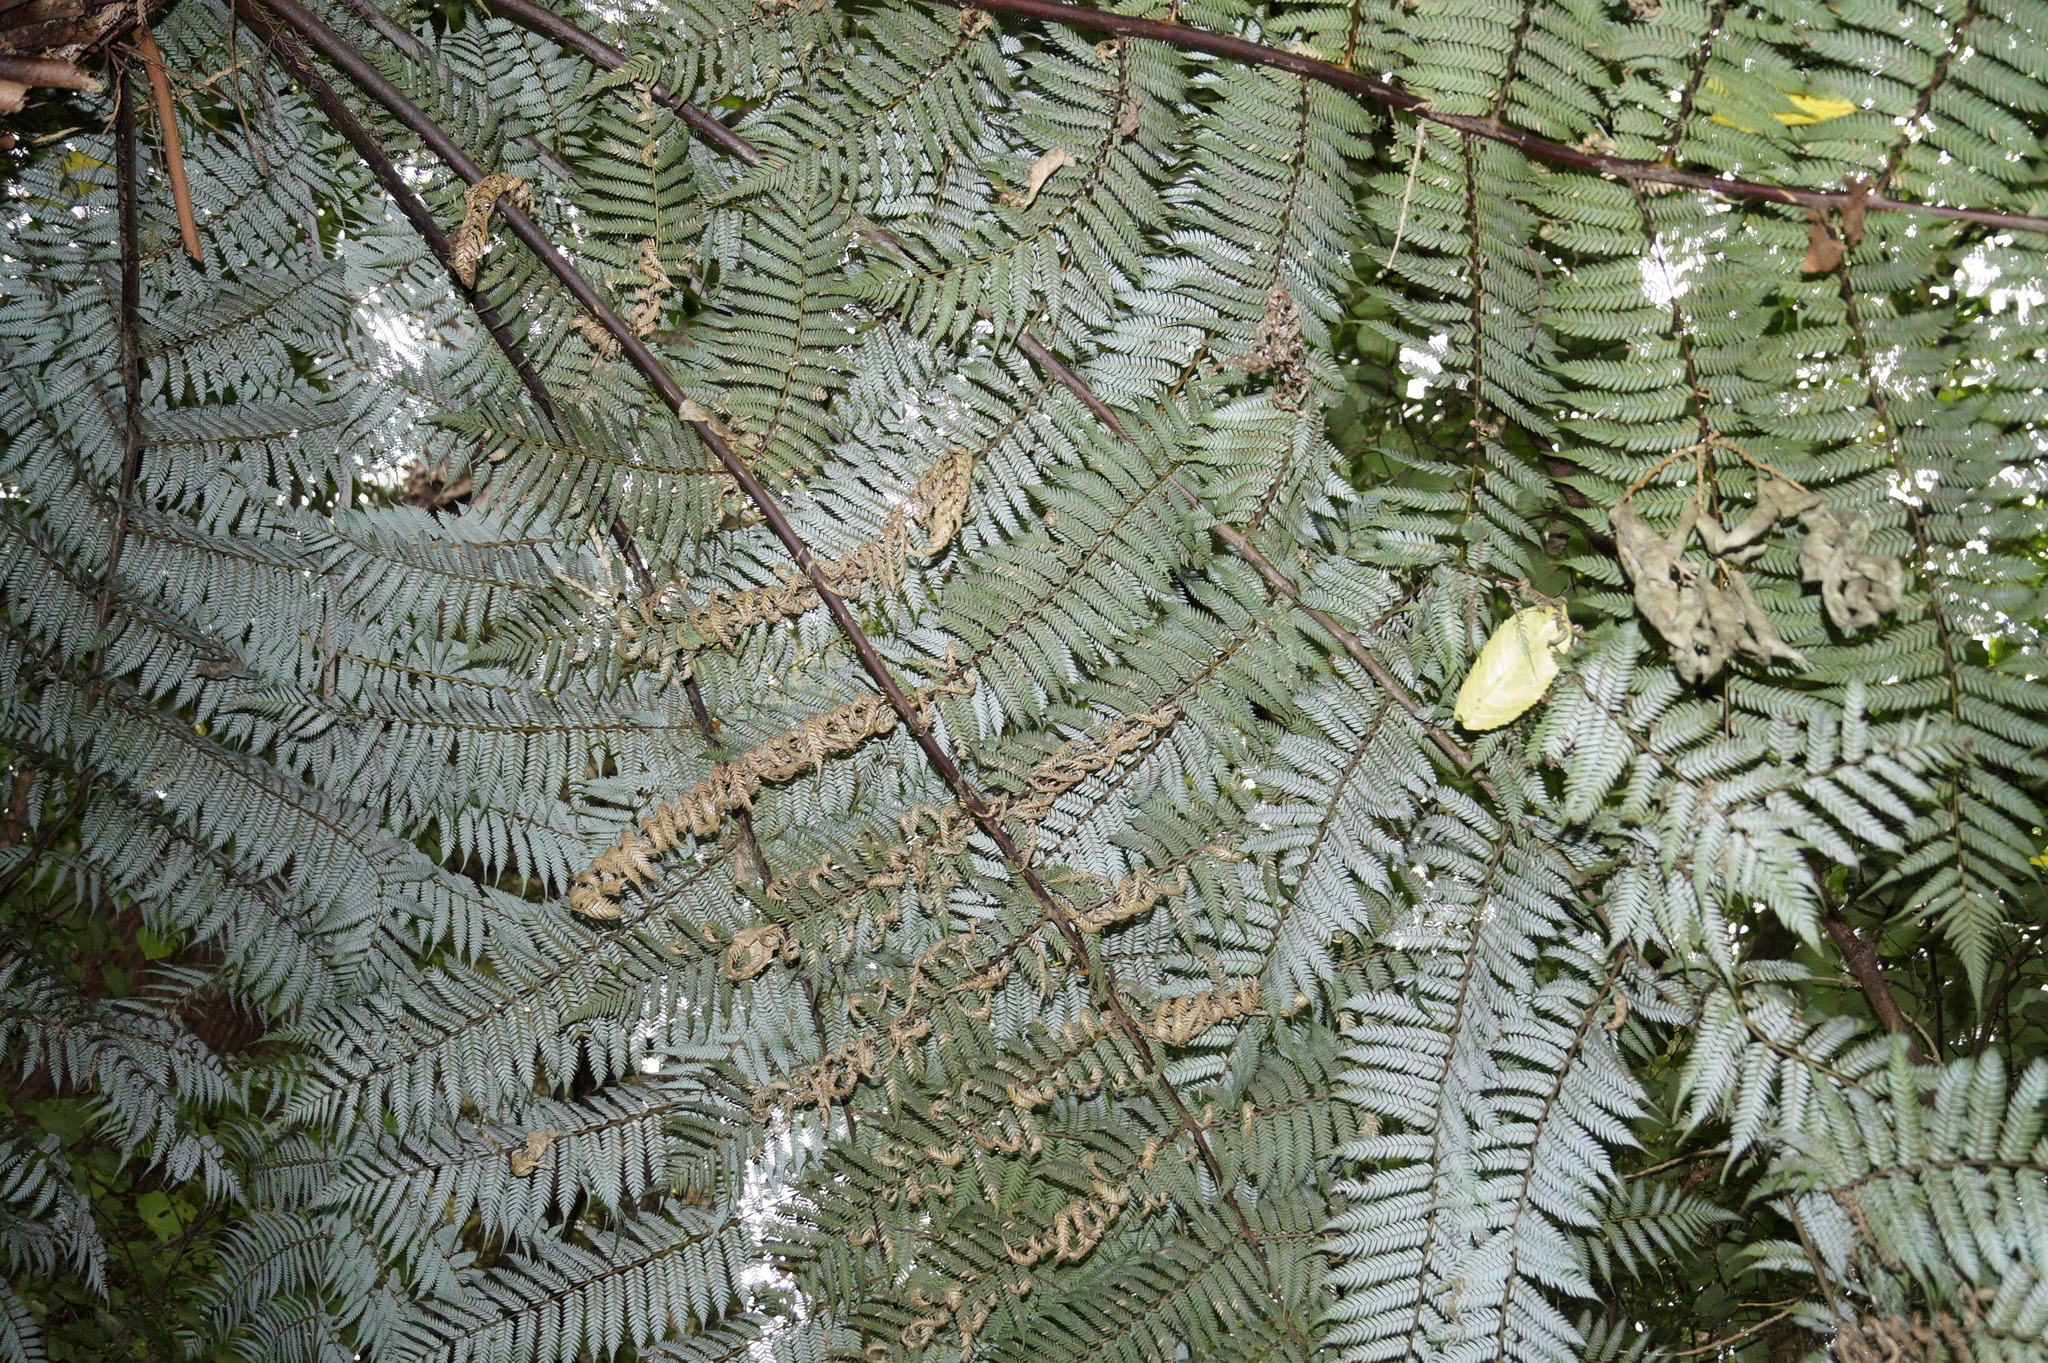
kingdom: Plantae
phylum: Tracheophyta
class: Polypodiopsida
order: Cyatheales
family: Cyatheaceae
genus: Alsophila
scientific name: Alsophila dealbata
